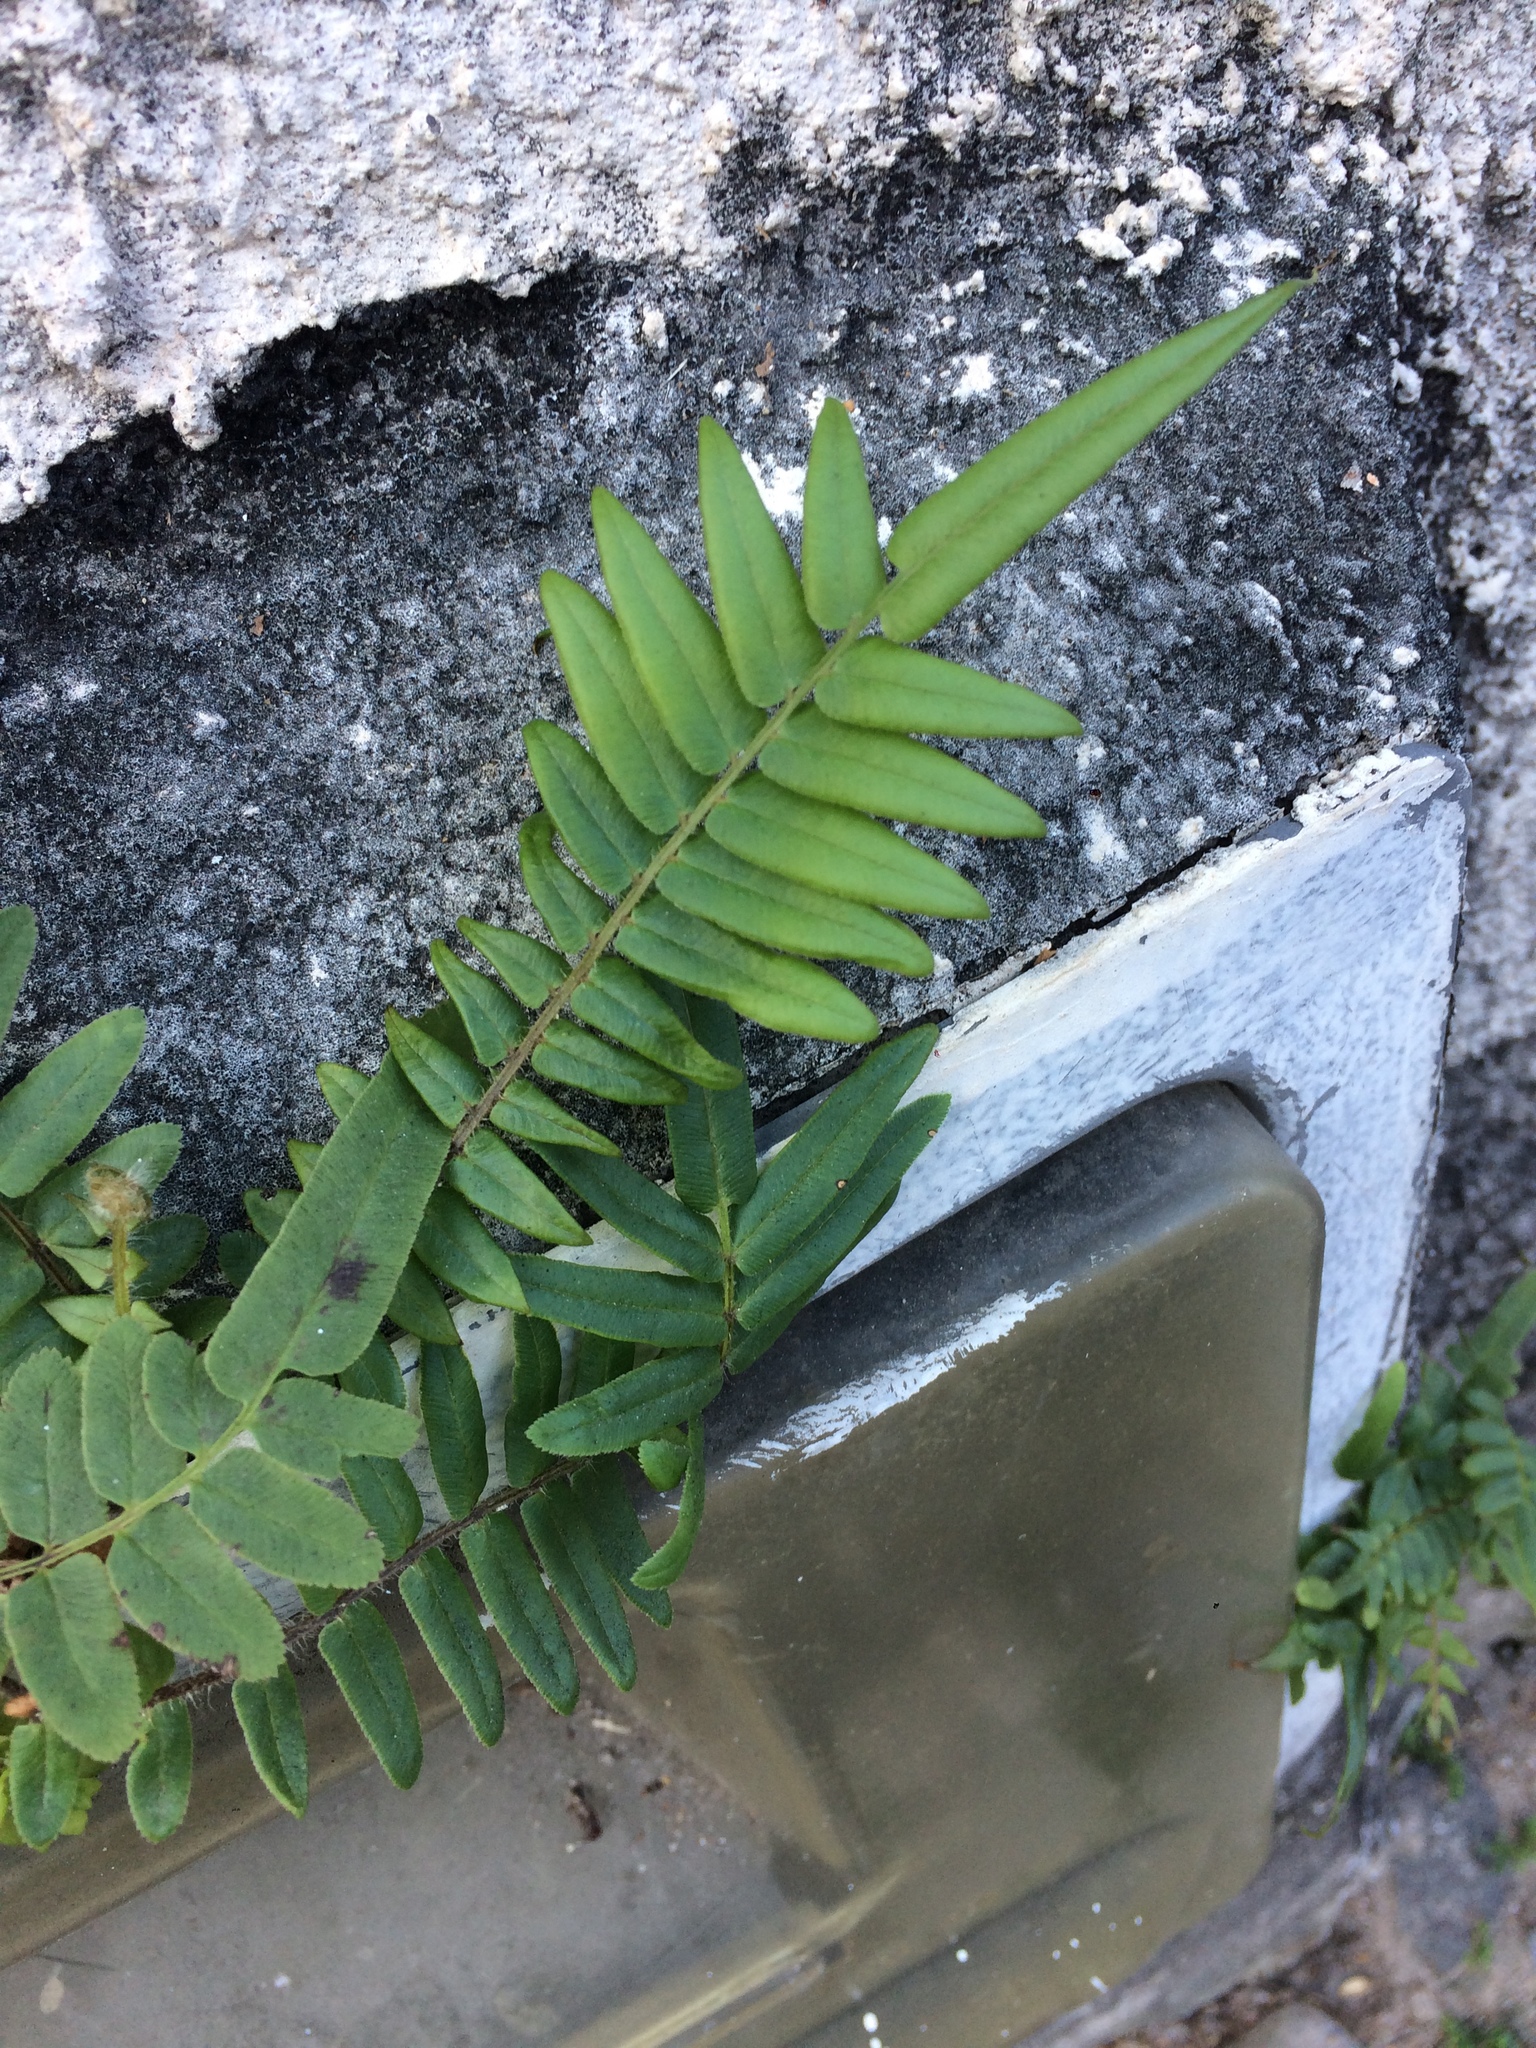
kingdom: Plantae
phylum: Tracheophyta
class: Polypodiopsida
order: Polypodiales
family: Pteridaceae
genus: Pteris
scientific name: Pteris vittata
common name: Ladder brake
